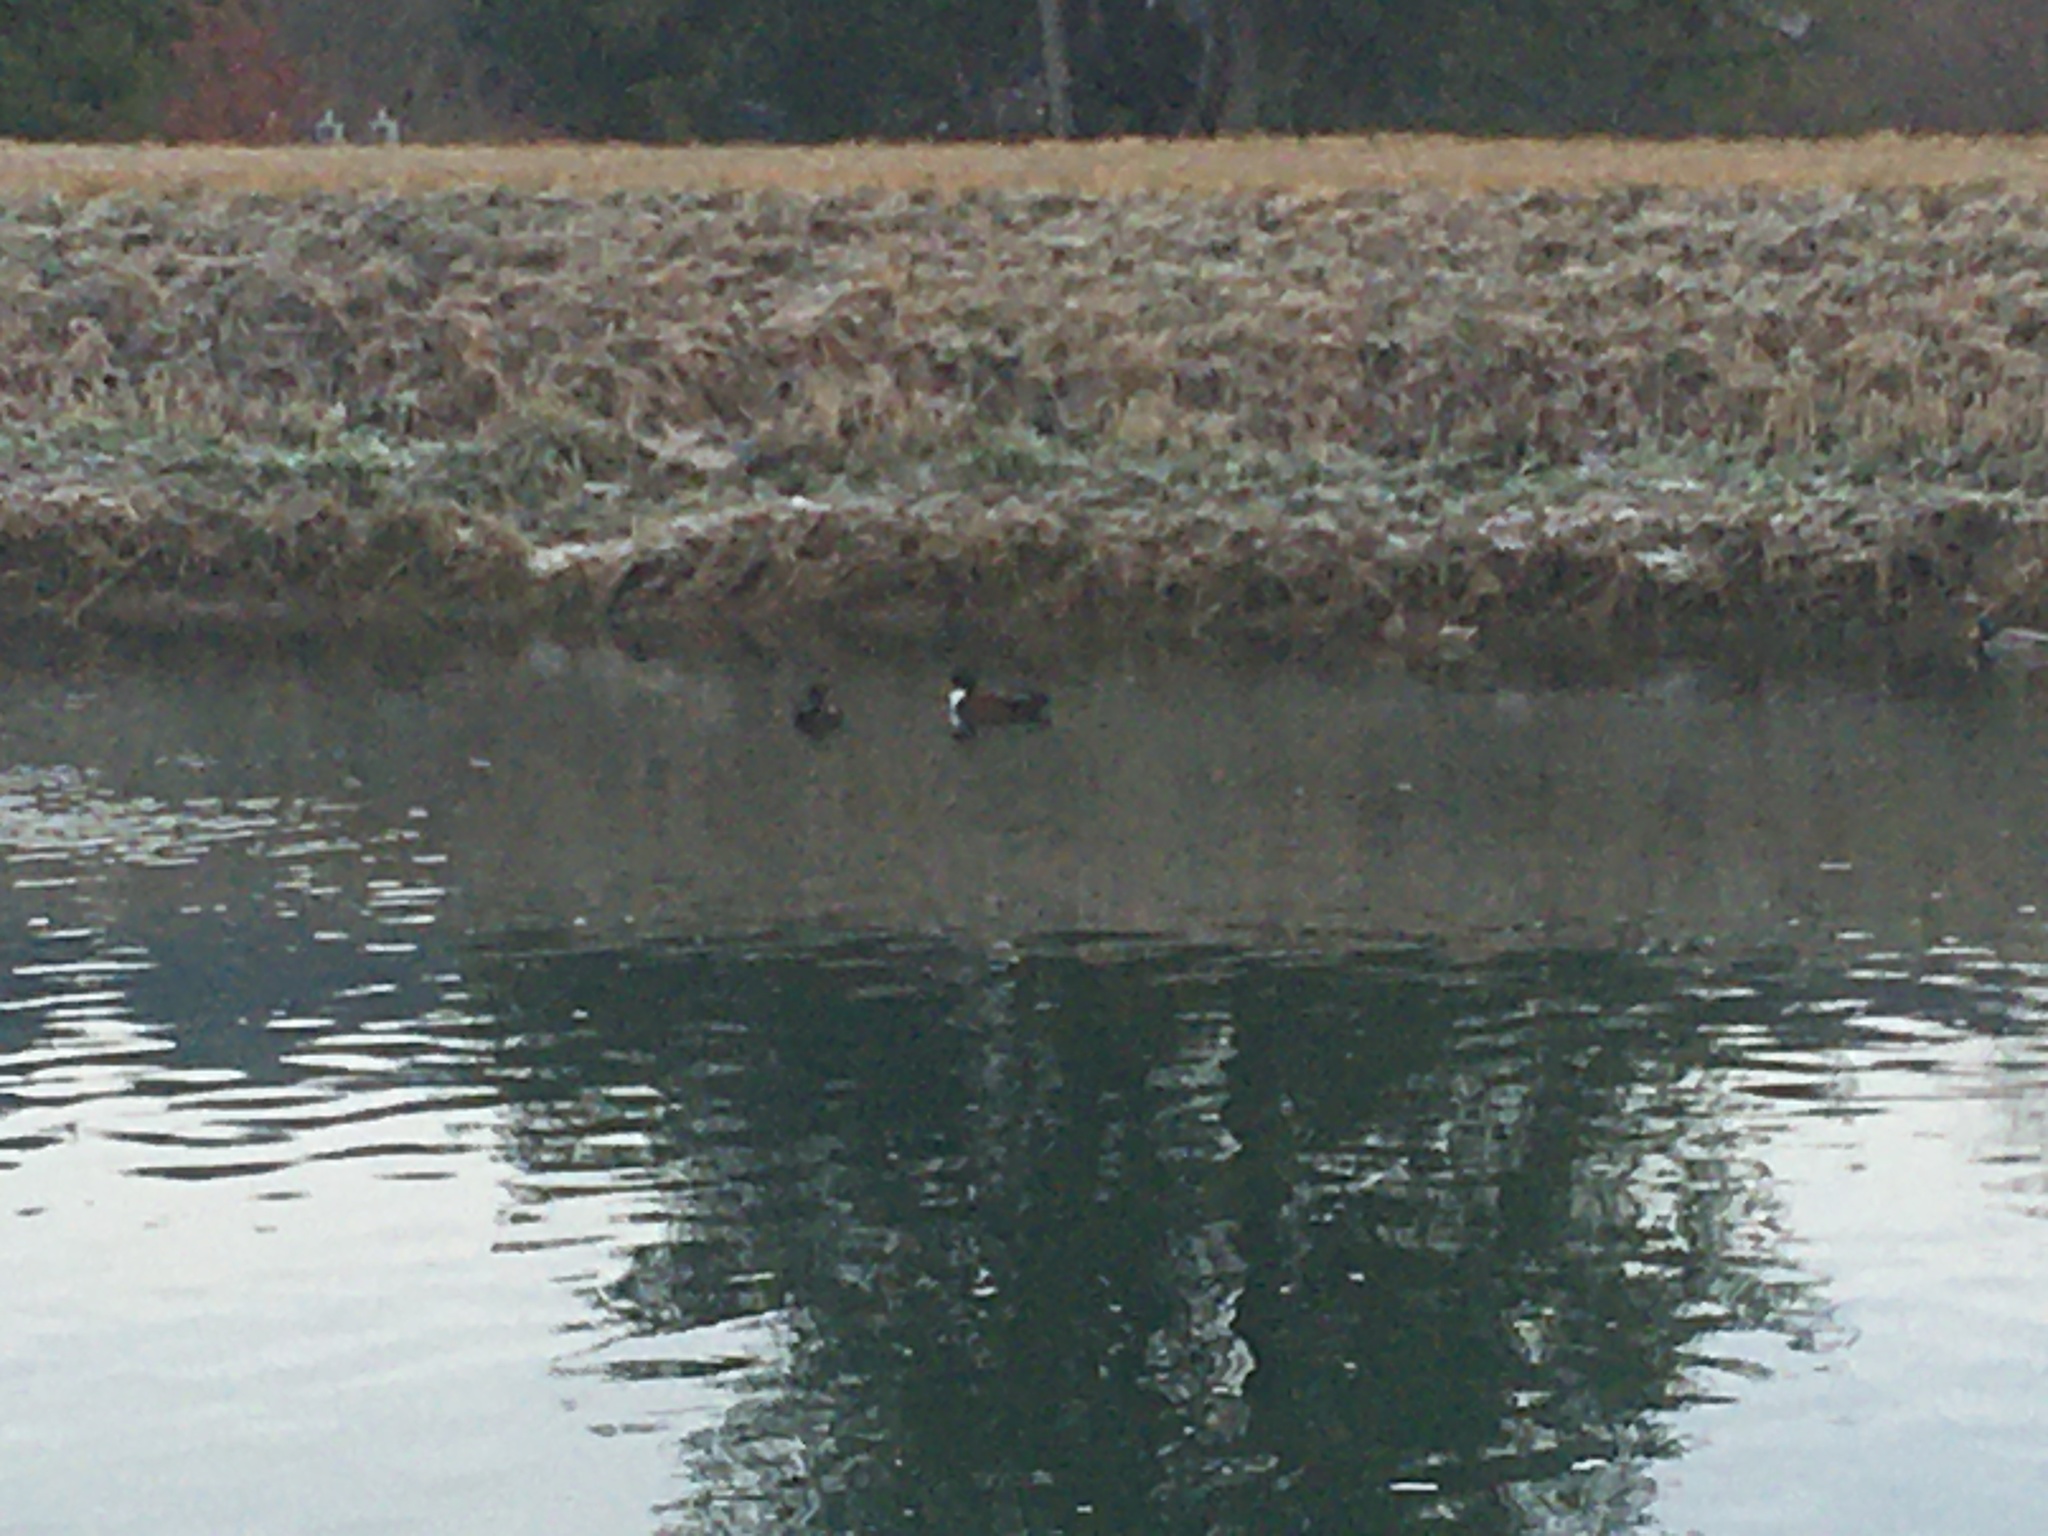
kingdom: Animalia
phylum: Chordata
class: Aves
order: Anseriformes
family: Anatidae
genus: Anas
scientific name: Anas platyrhynchos
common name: Mallard
